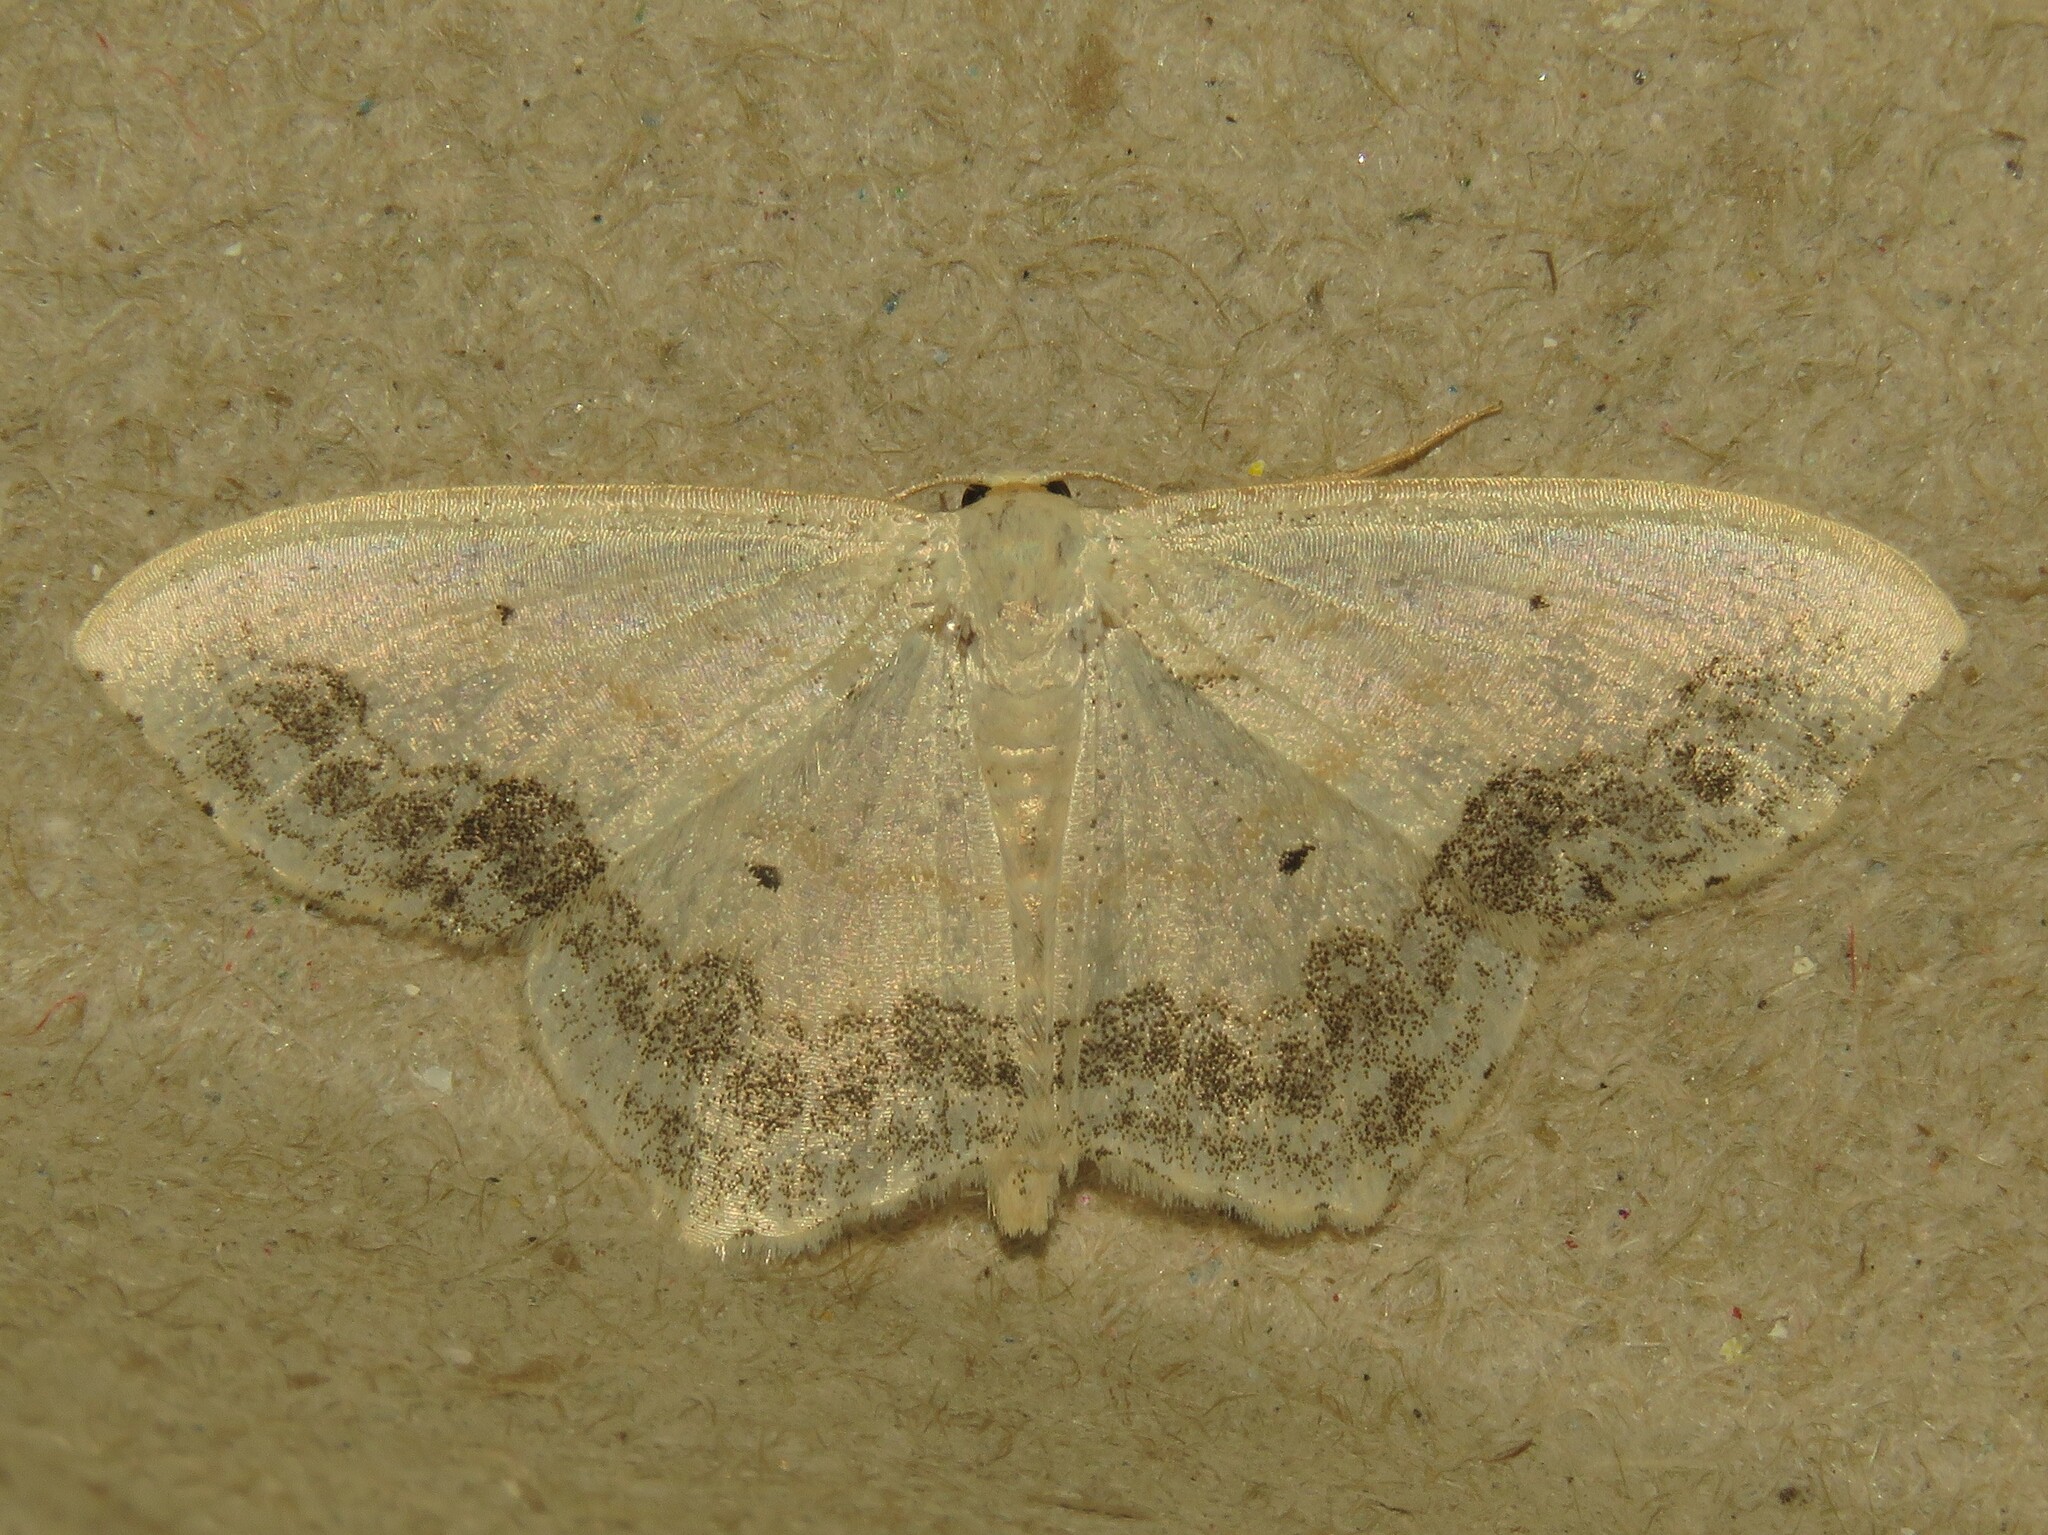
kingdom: Animalia
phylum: Arthropoda
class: Insecta
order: Lepidoptera
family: Geometridae
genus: Scopula
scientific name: Scopula limboundata
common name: Large lace border
